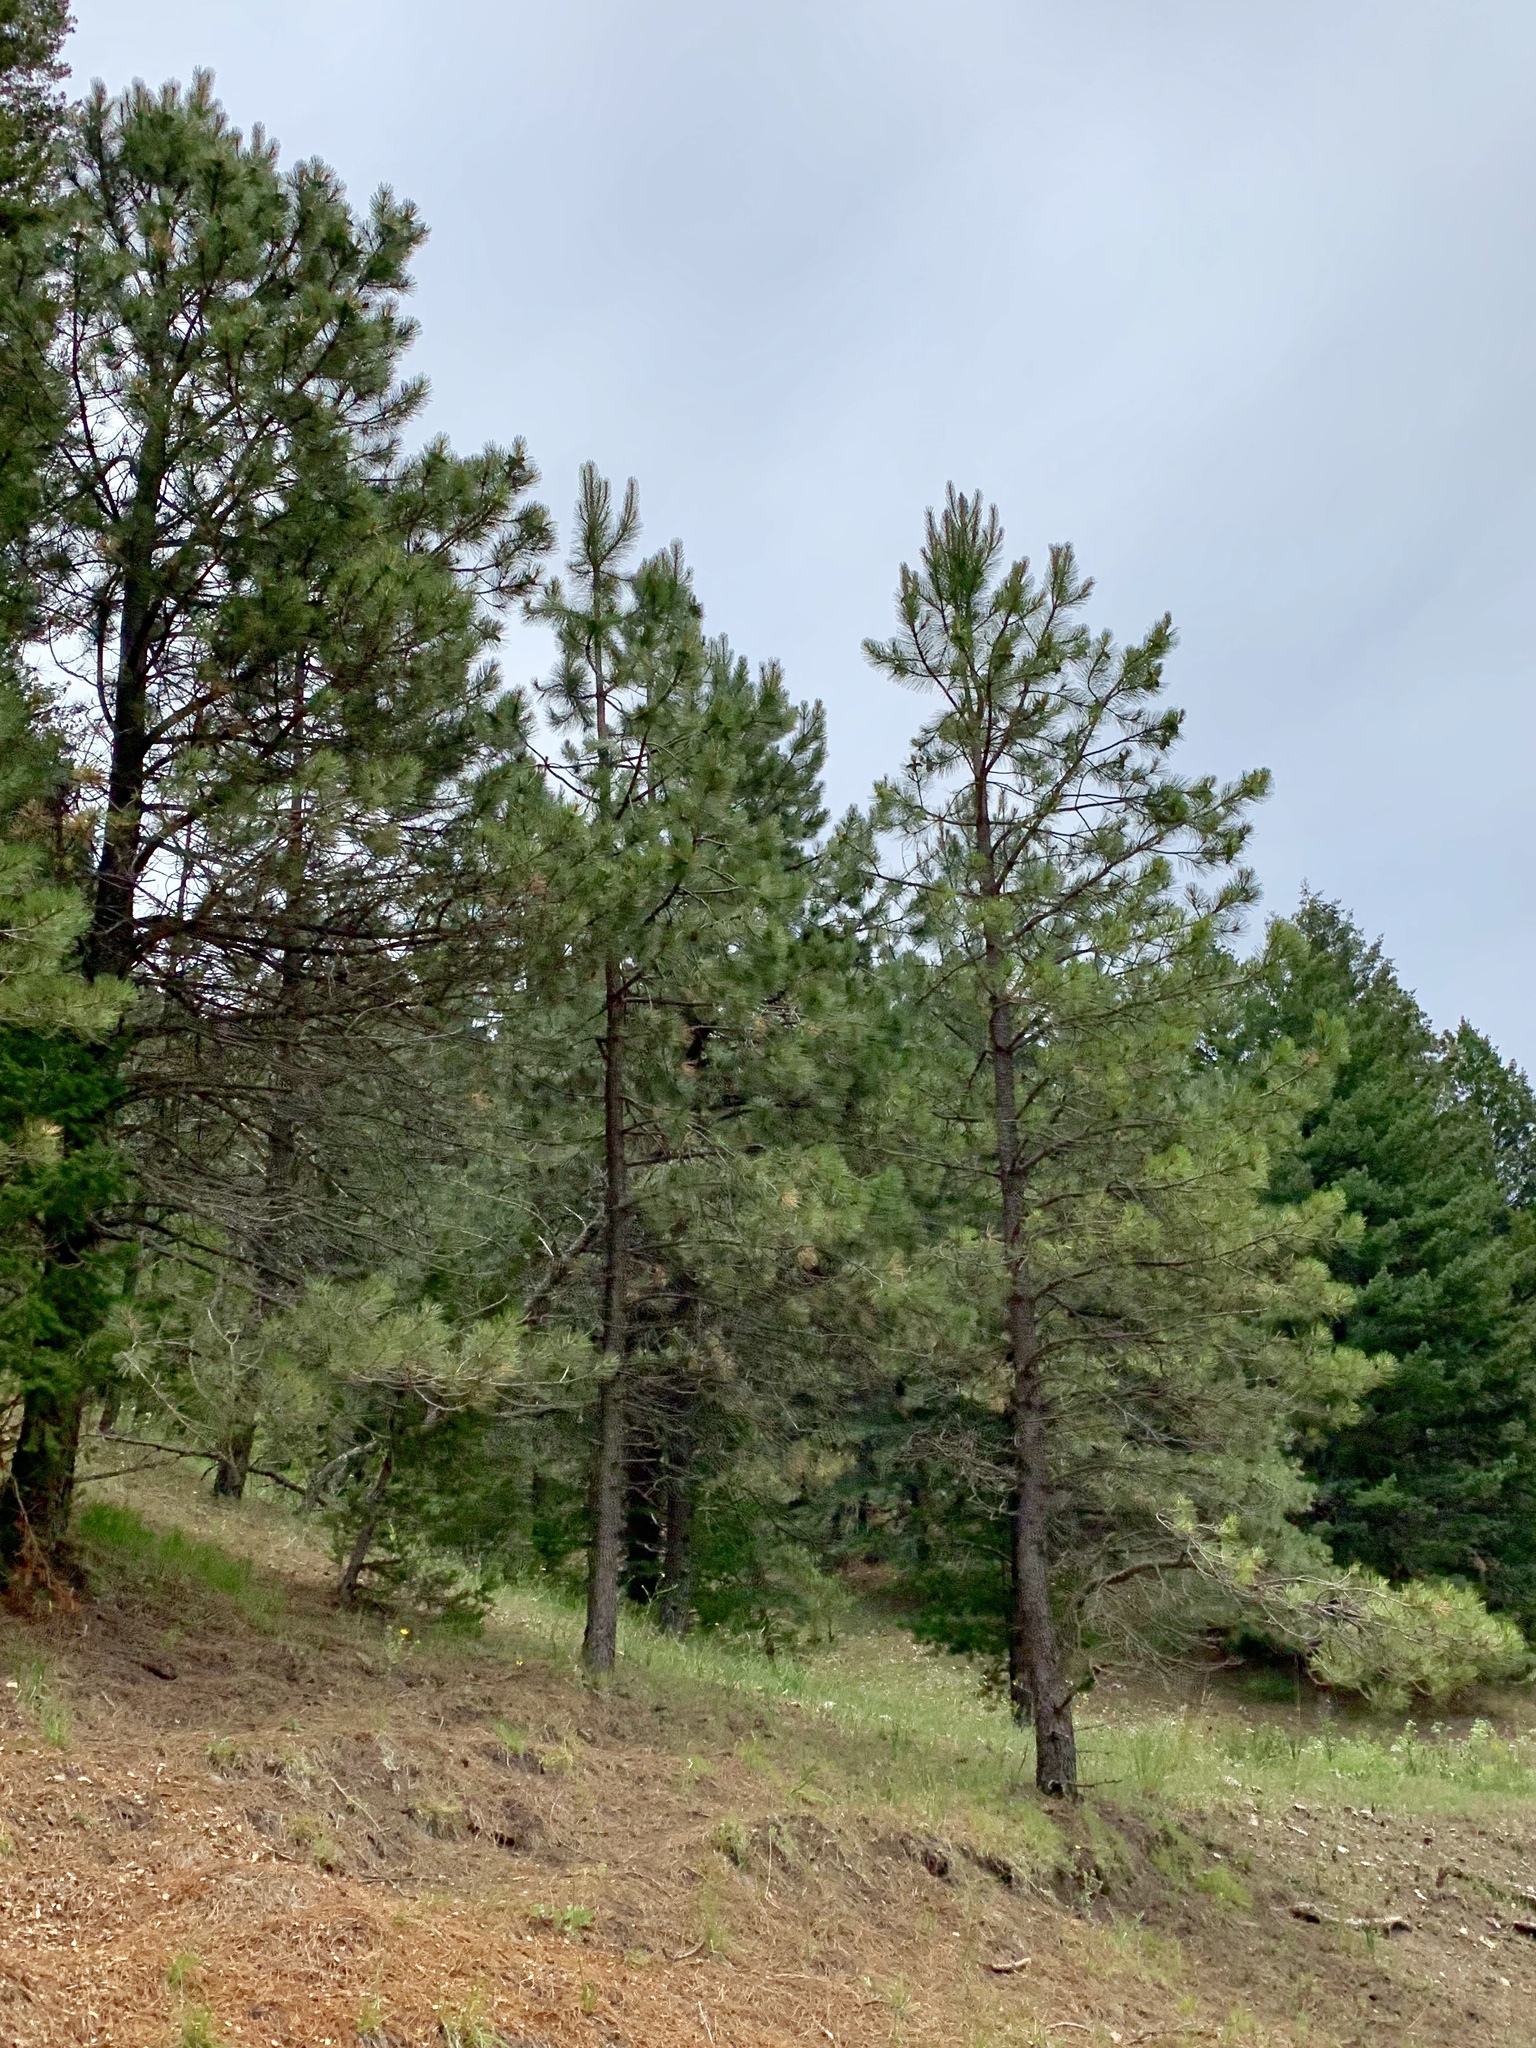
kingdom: Plantae
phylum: Tracheophyta
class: Pinopsida
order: Pinales
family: Pinaceae
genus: Pinus
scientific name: Pinus ponderosa
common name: Western yellow-pine
